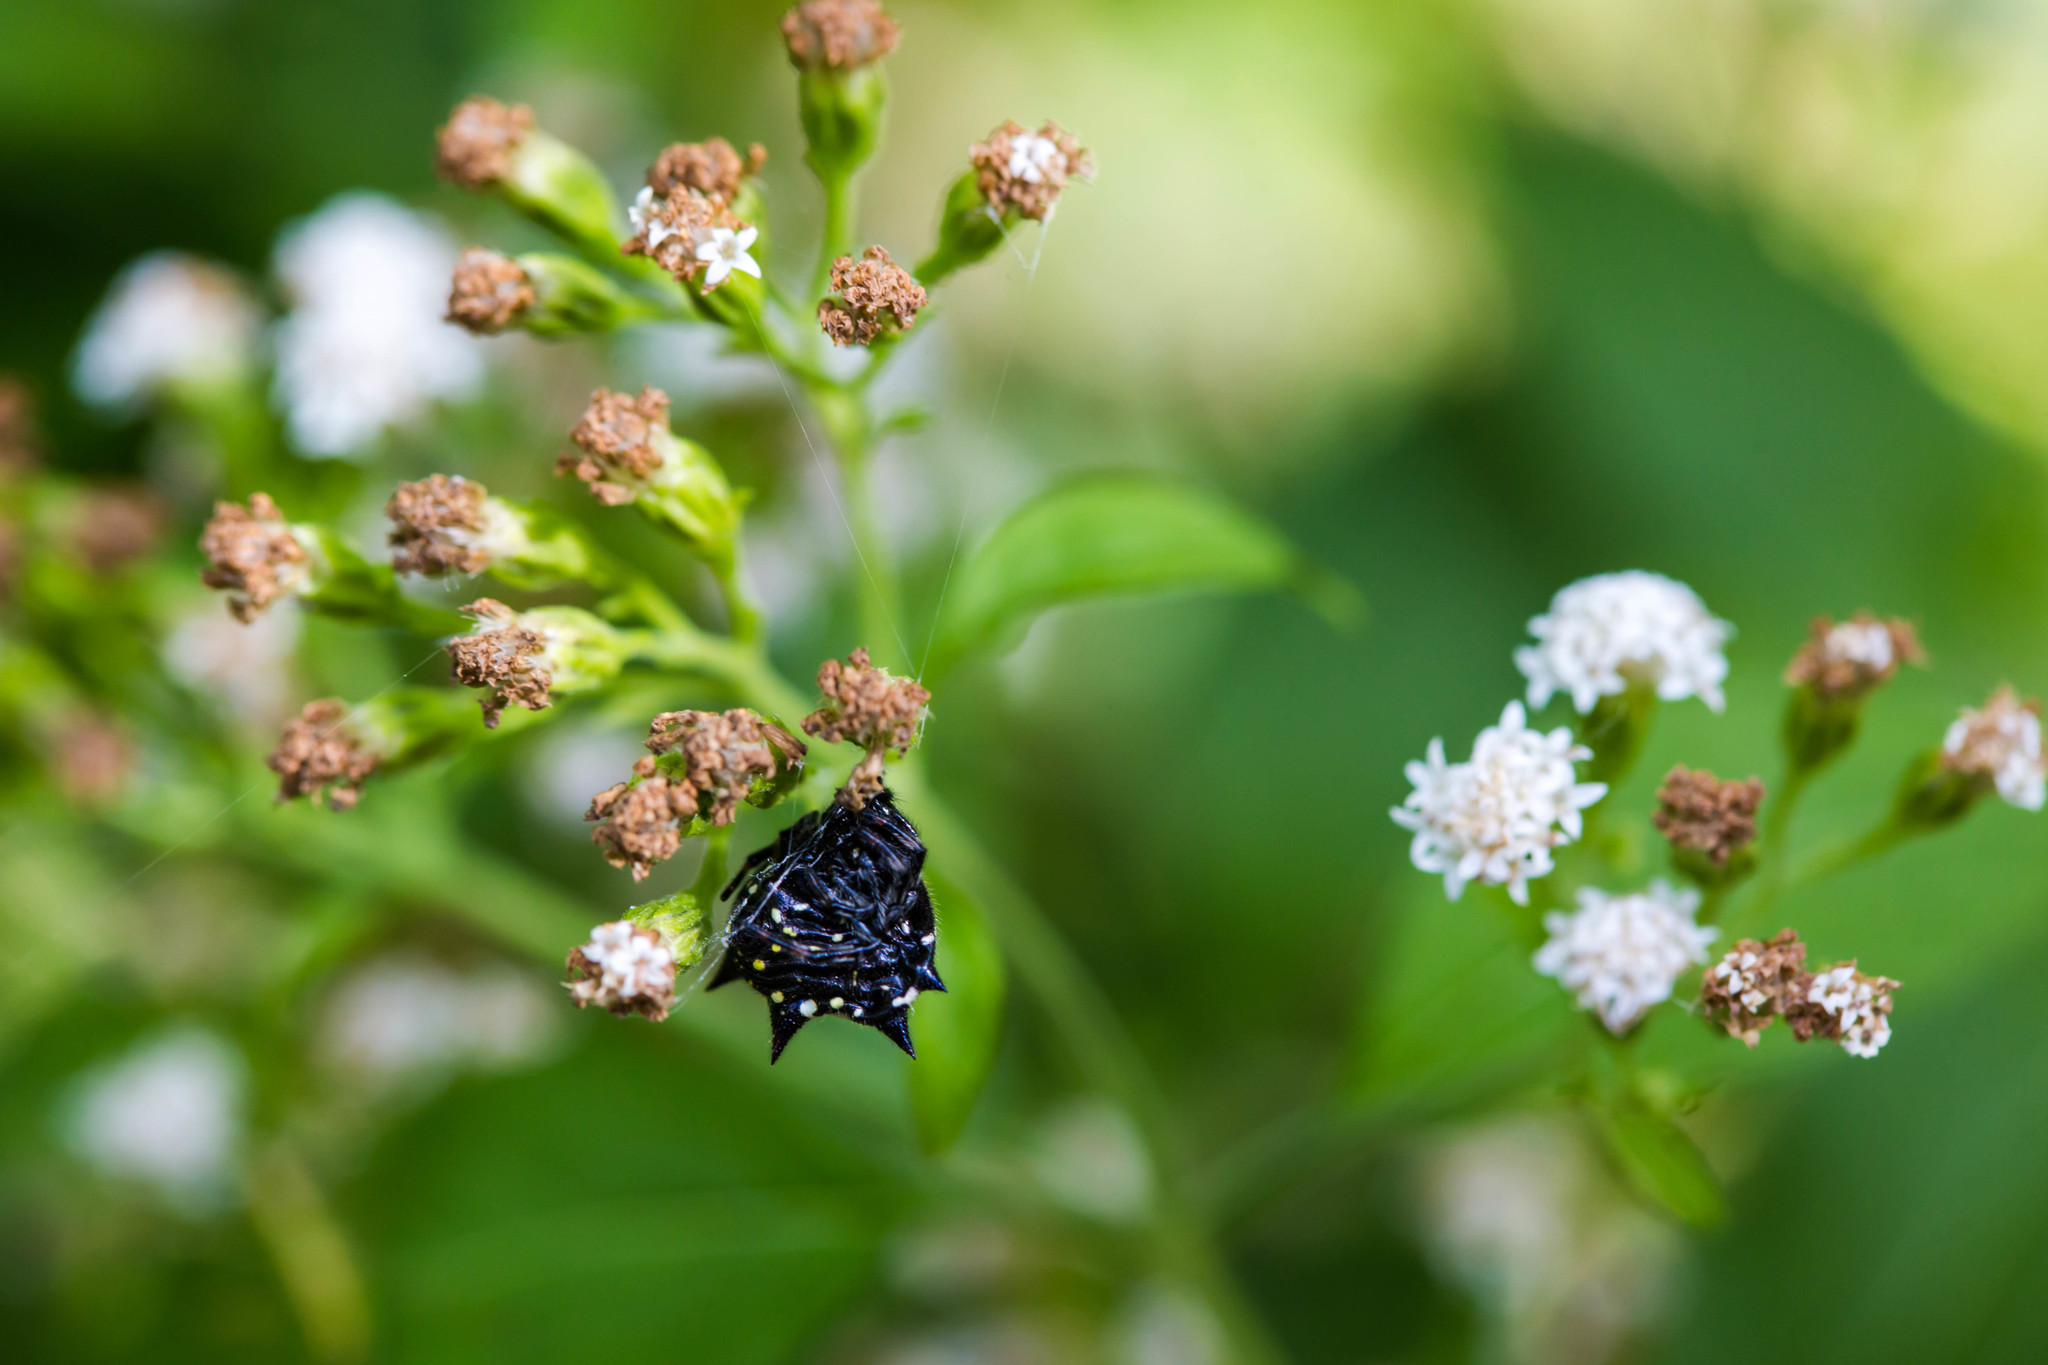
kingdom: Animalia
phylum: Arthropoda
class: Arachnida
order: Araneae
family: Araneidae
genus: Gasteracantha
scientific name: Gasteracantha cancriformis
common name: Orb weavers
